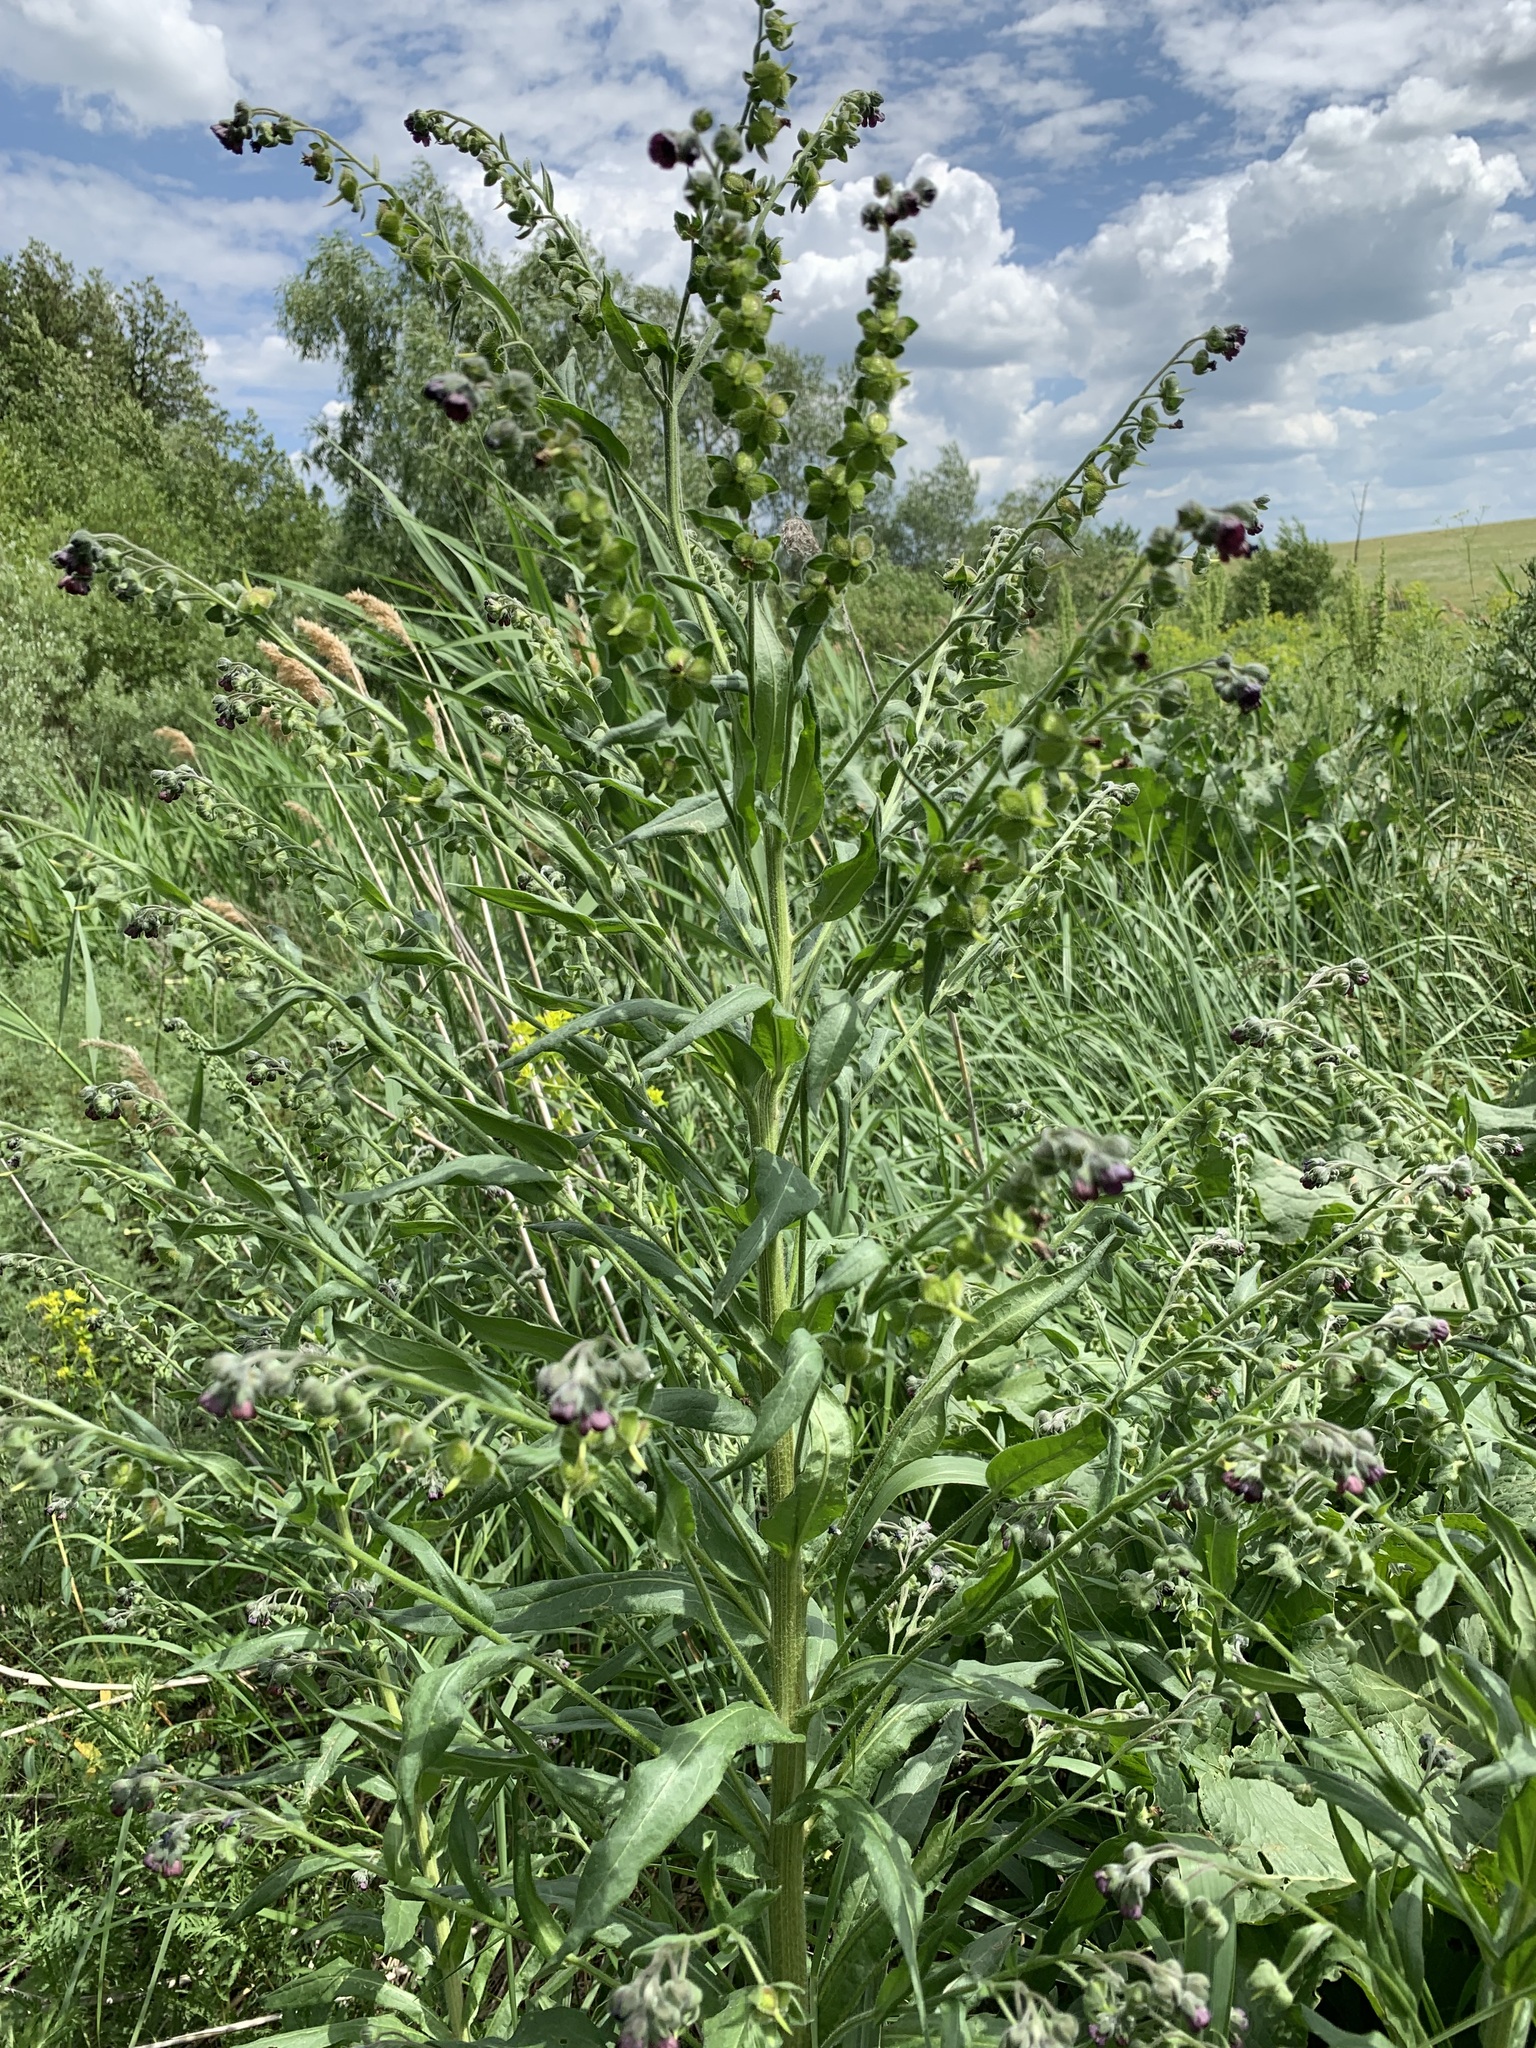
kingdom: Plantae
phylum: Tracheophyta
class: Magnoliopsida
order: Boraginales
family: Boraginaceae
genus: Cynoglossum
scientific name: Cynoglossum officinale
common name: Hound's-tongue
